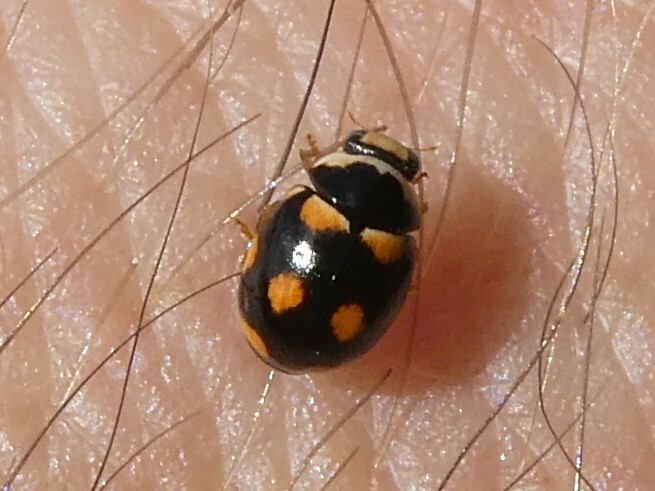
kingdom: Animalia
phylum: Arthropoda
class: Insecta
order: Coleoptera
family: Coccinellidae
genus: Brachiacantha
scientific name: Brachiacantha ursina
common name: Ursine spurleg lady beetle
